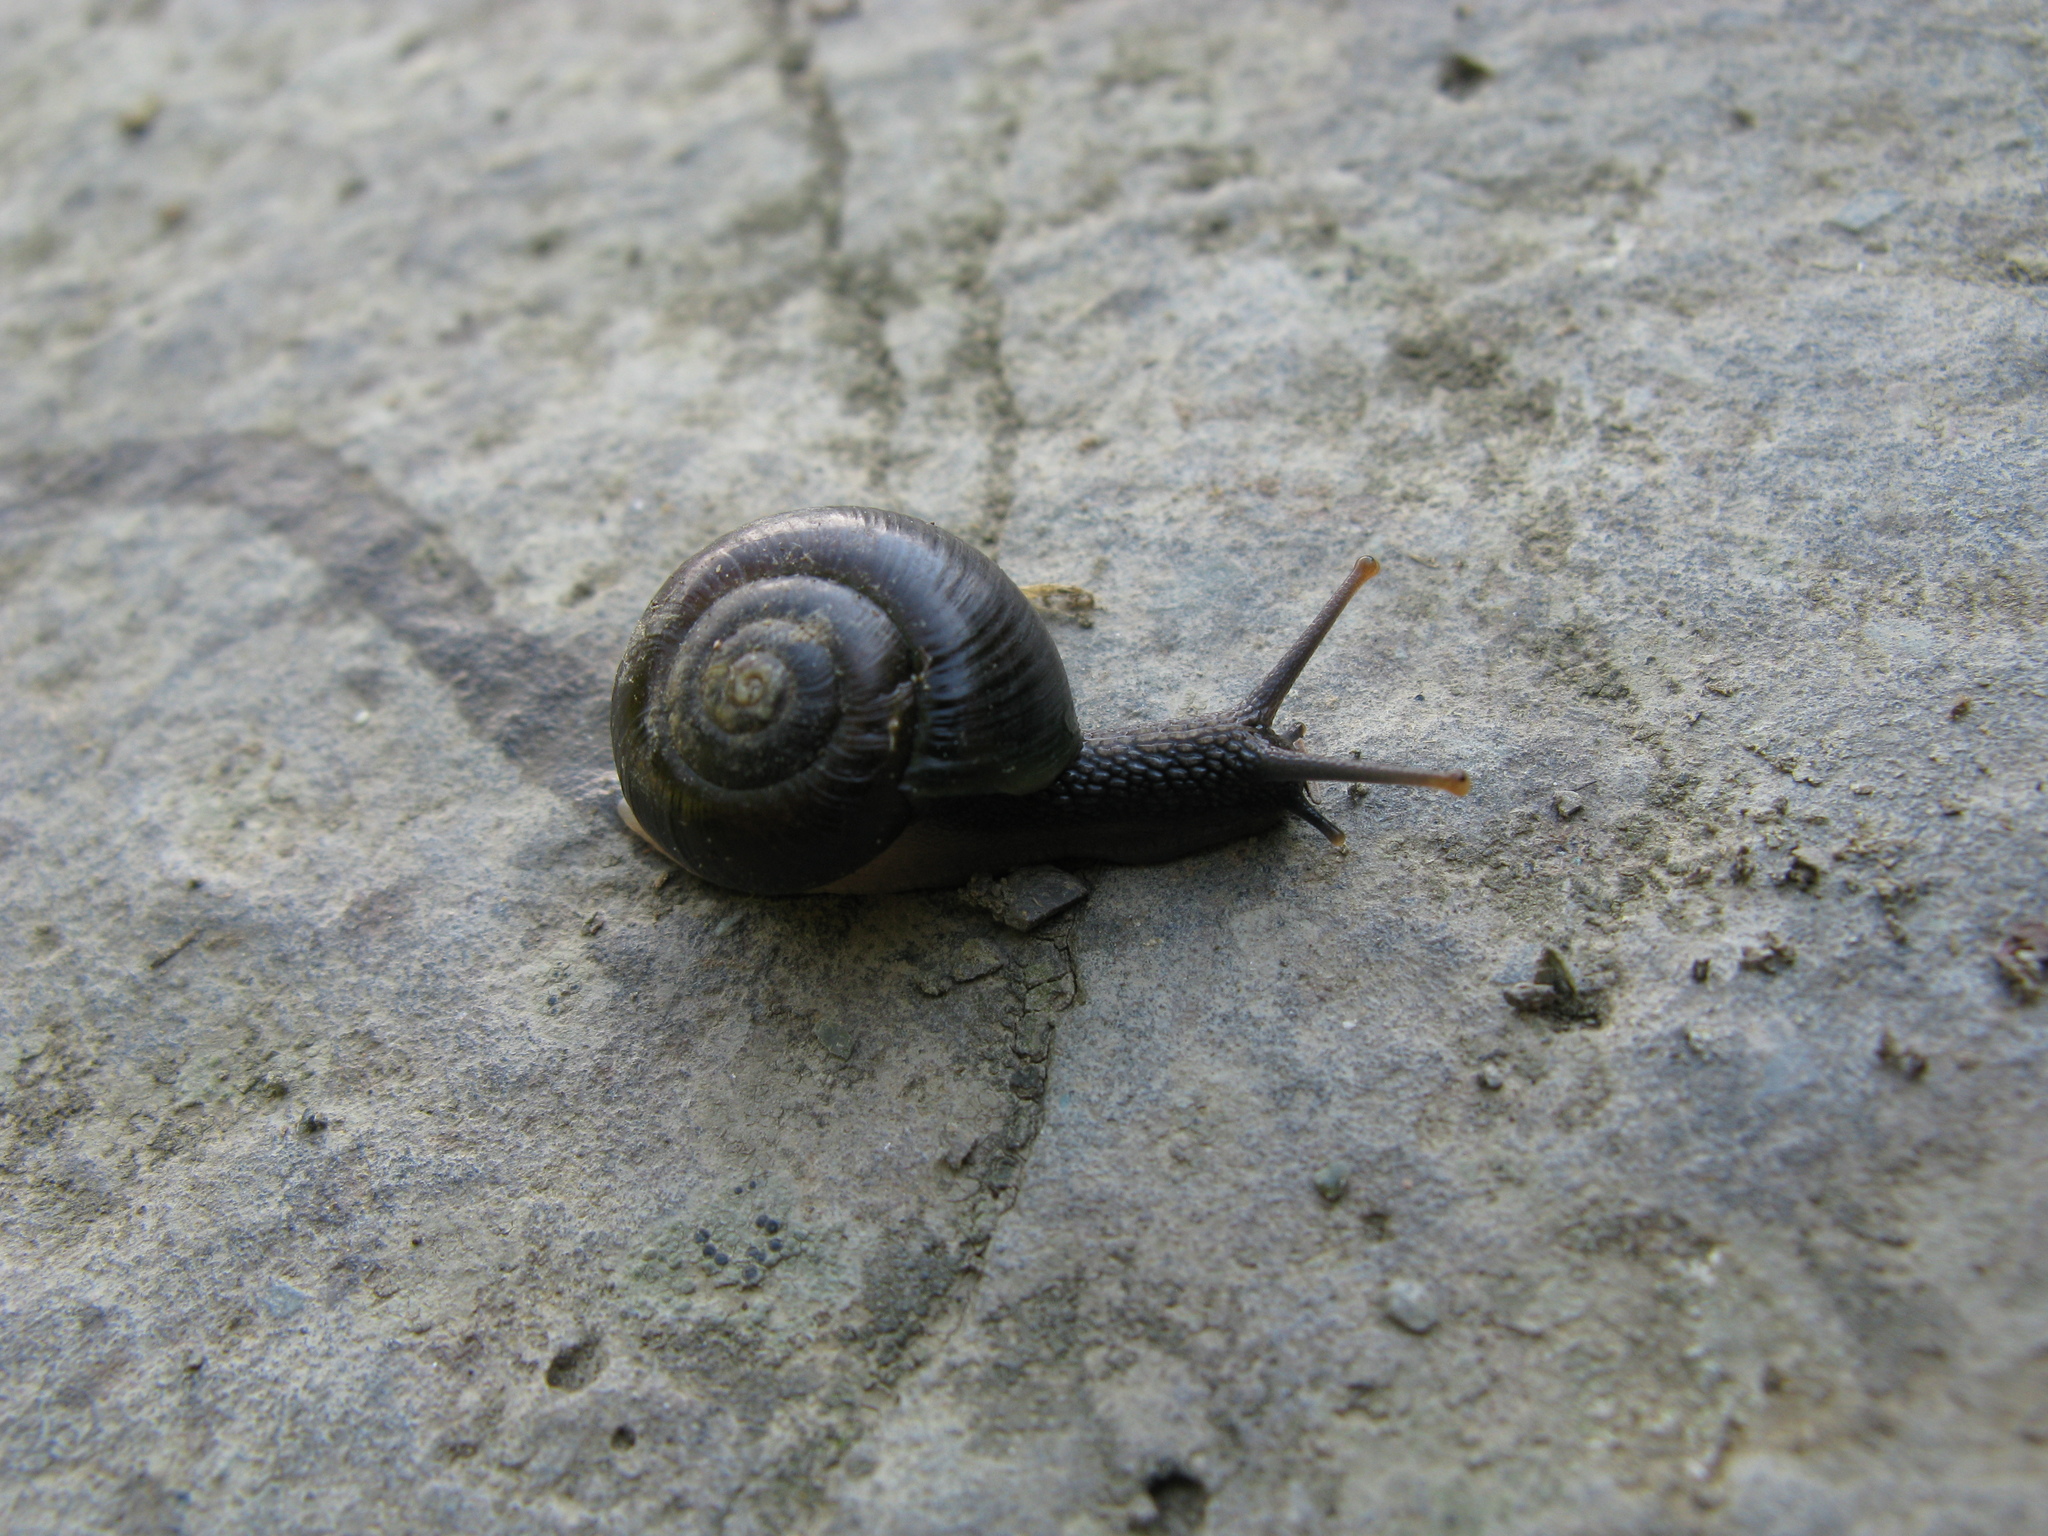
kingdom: Animalia
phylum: Mollusca
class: Gastropoda
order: Stylommatophora
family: Helicidae
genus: Arianta
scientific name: Arianta petrii
